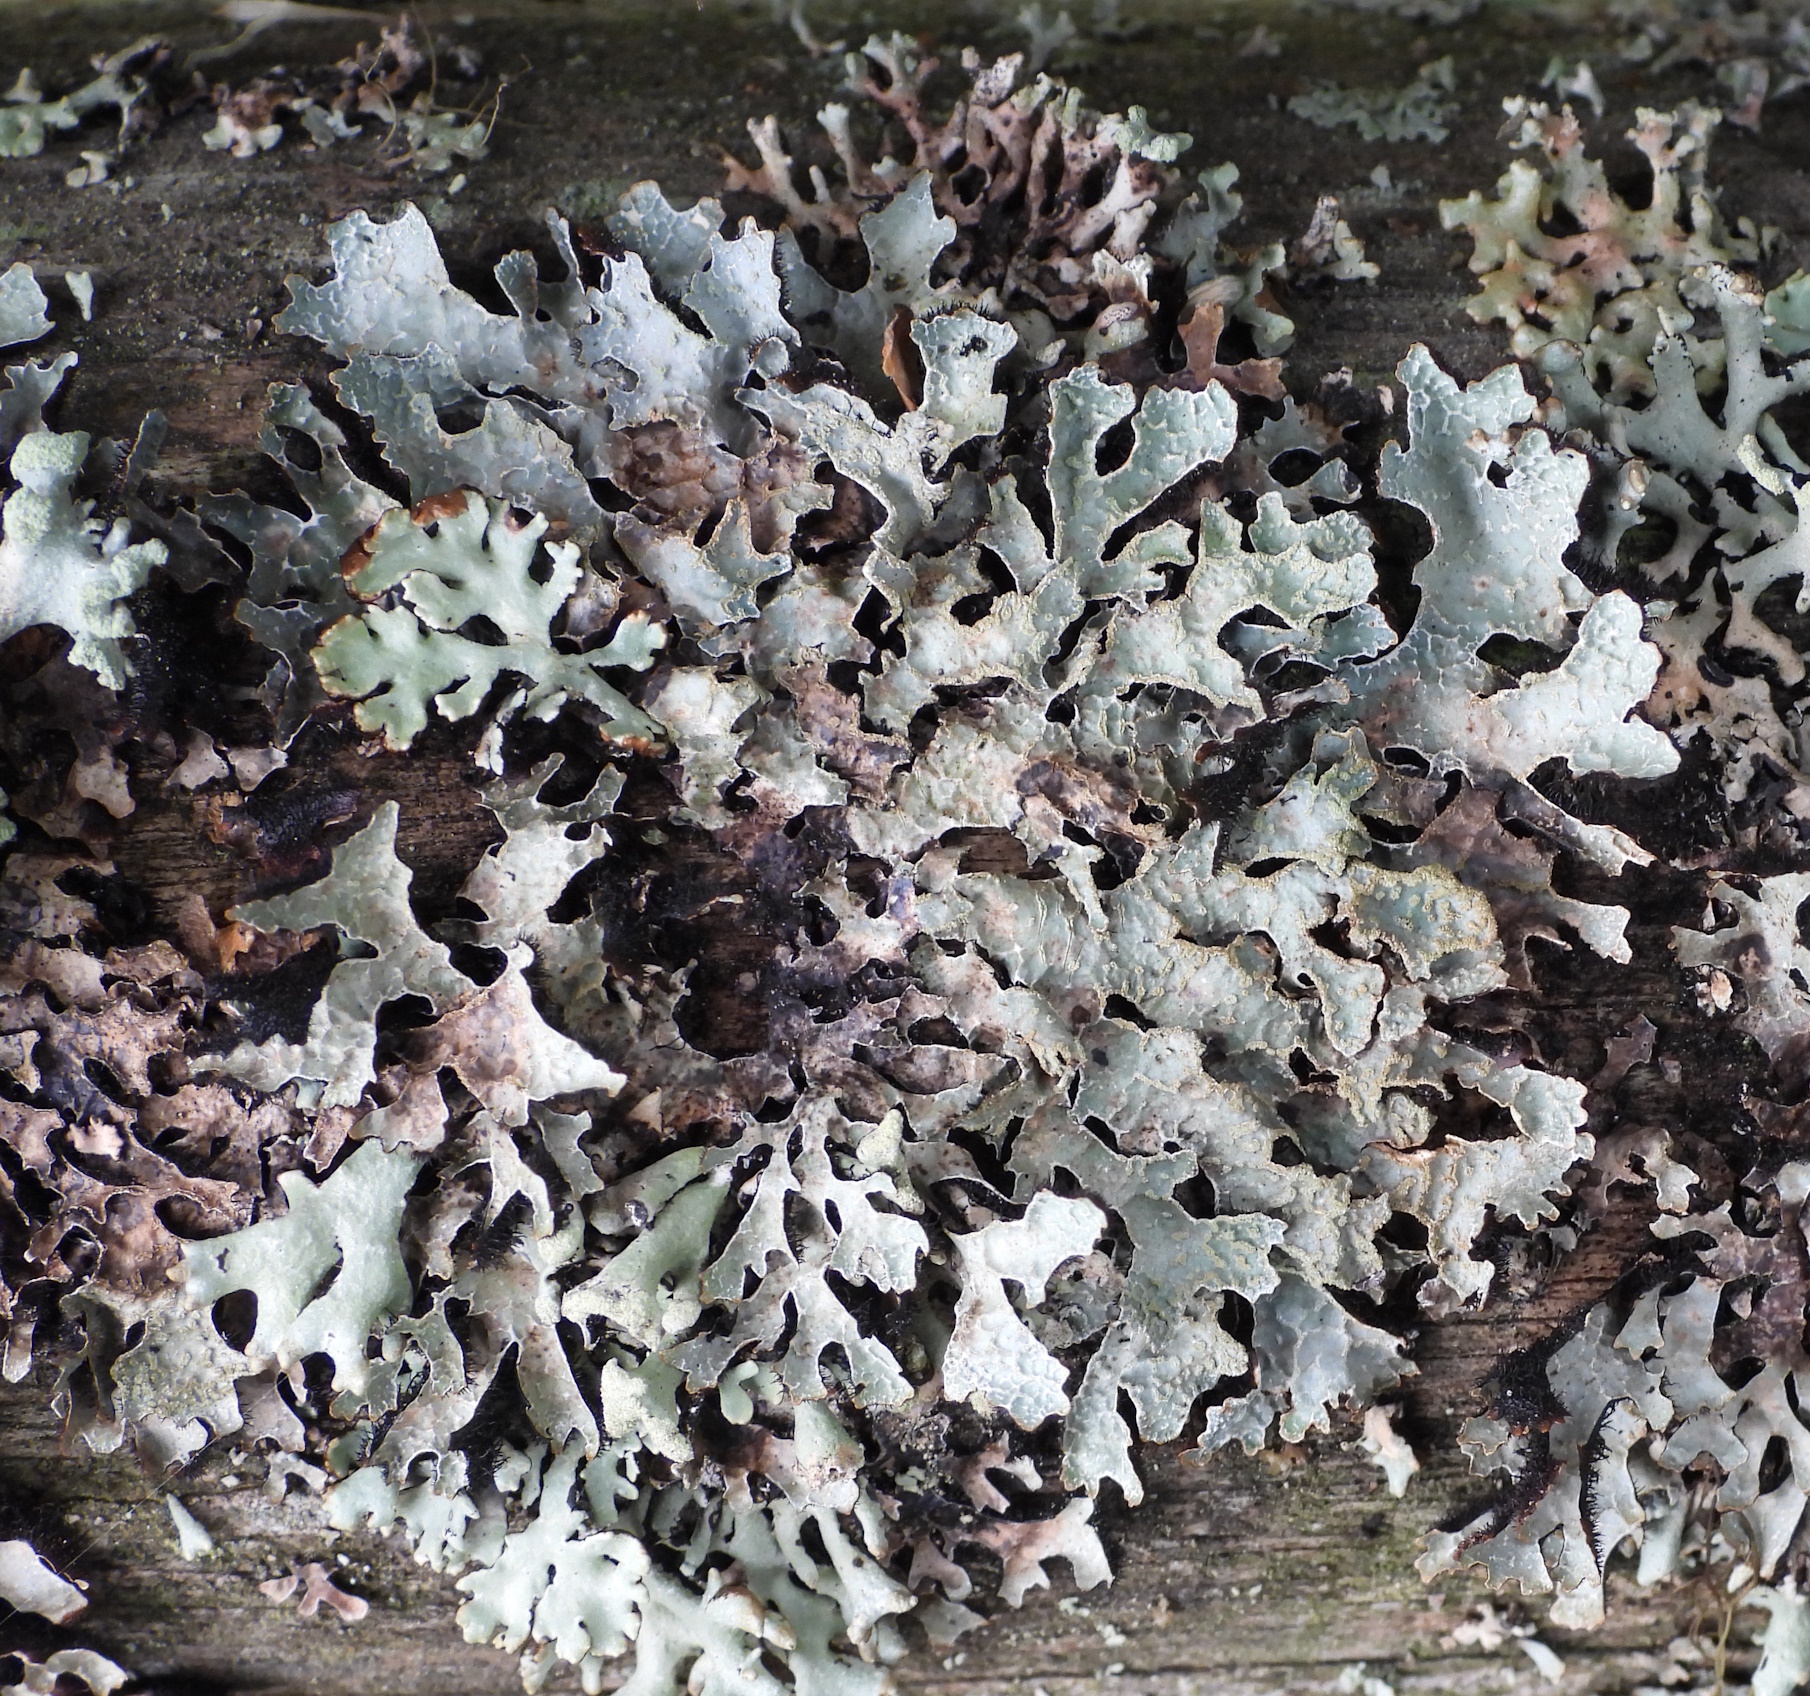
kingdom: Fungi
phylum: Ascomycota
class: Lecanoromycetes
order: Lecanorales
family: Parmeliaceae
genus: Parmelia
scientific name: Parmelia sulcata
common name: Netted shield lichen
